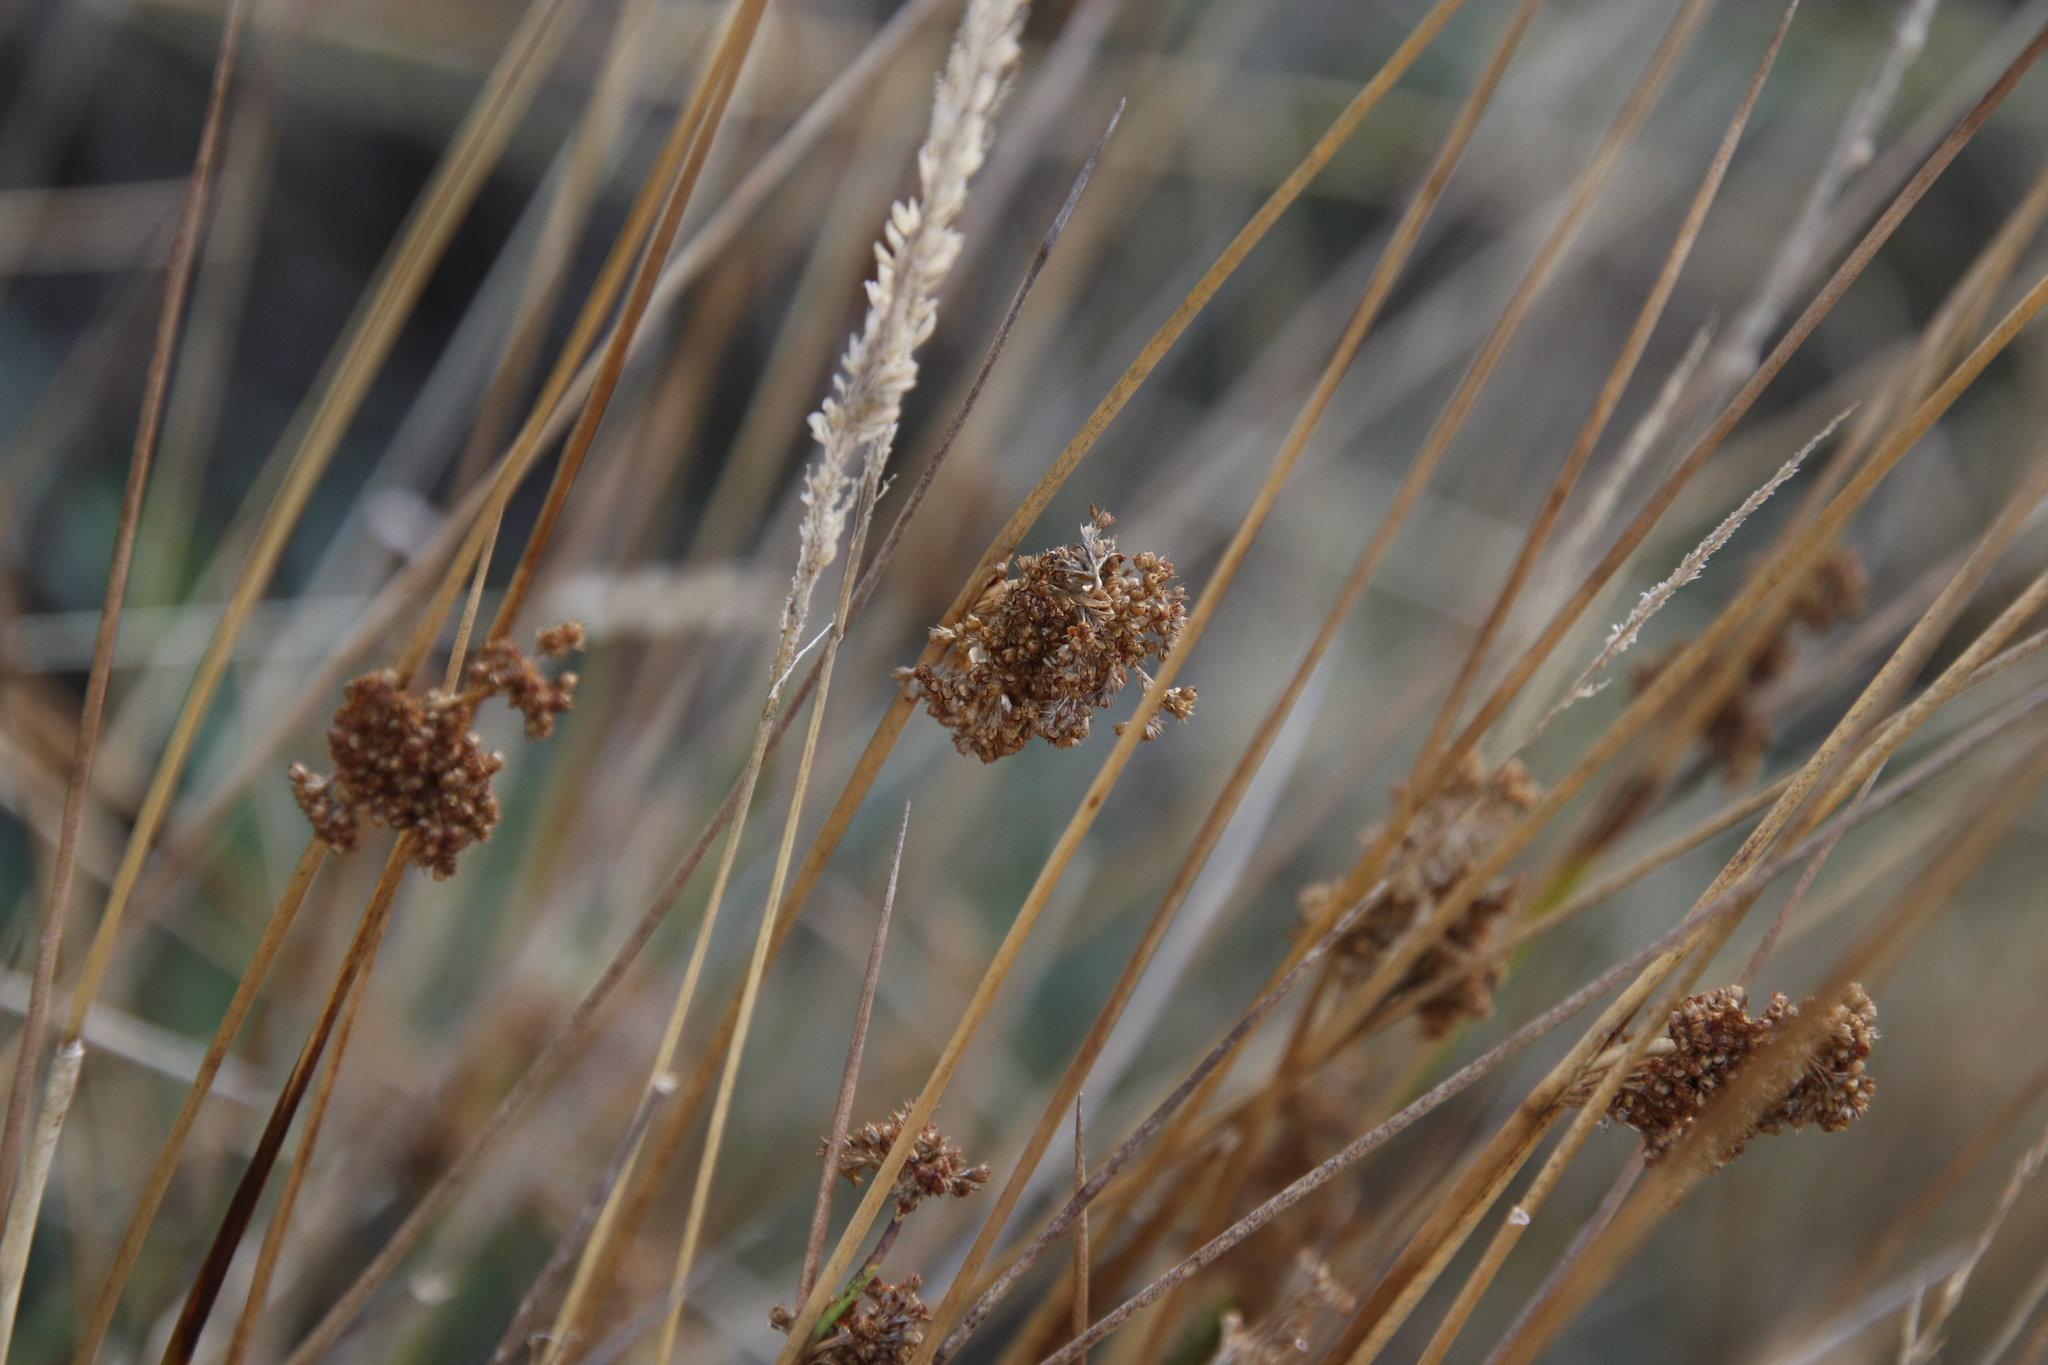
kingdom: Plantae
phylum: Tracheophyta
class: Liliopsida
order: Poales
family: Juncaceae
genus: Juncus
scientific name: Juncus effusus
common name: Soft rush
